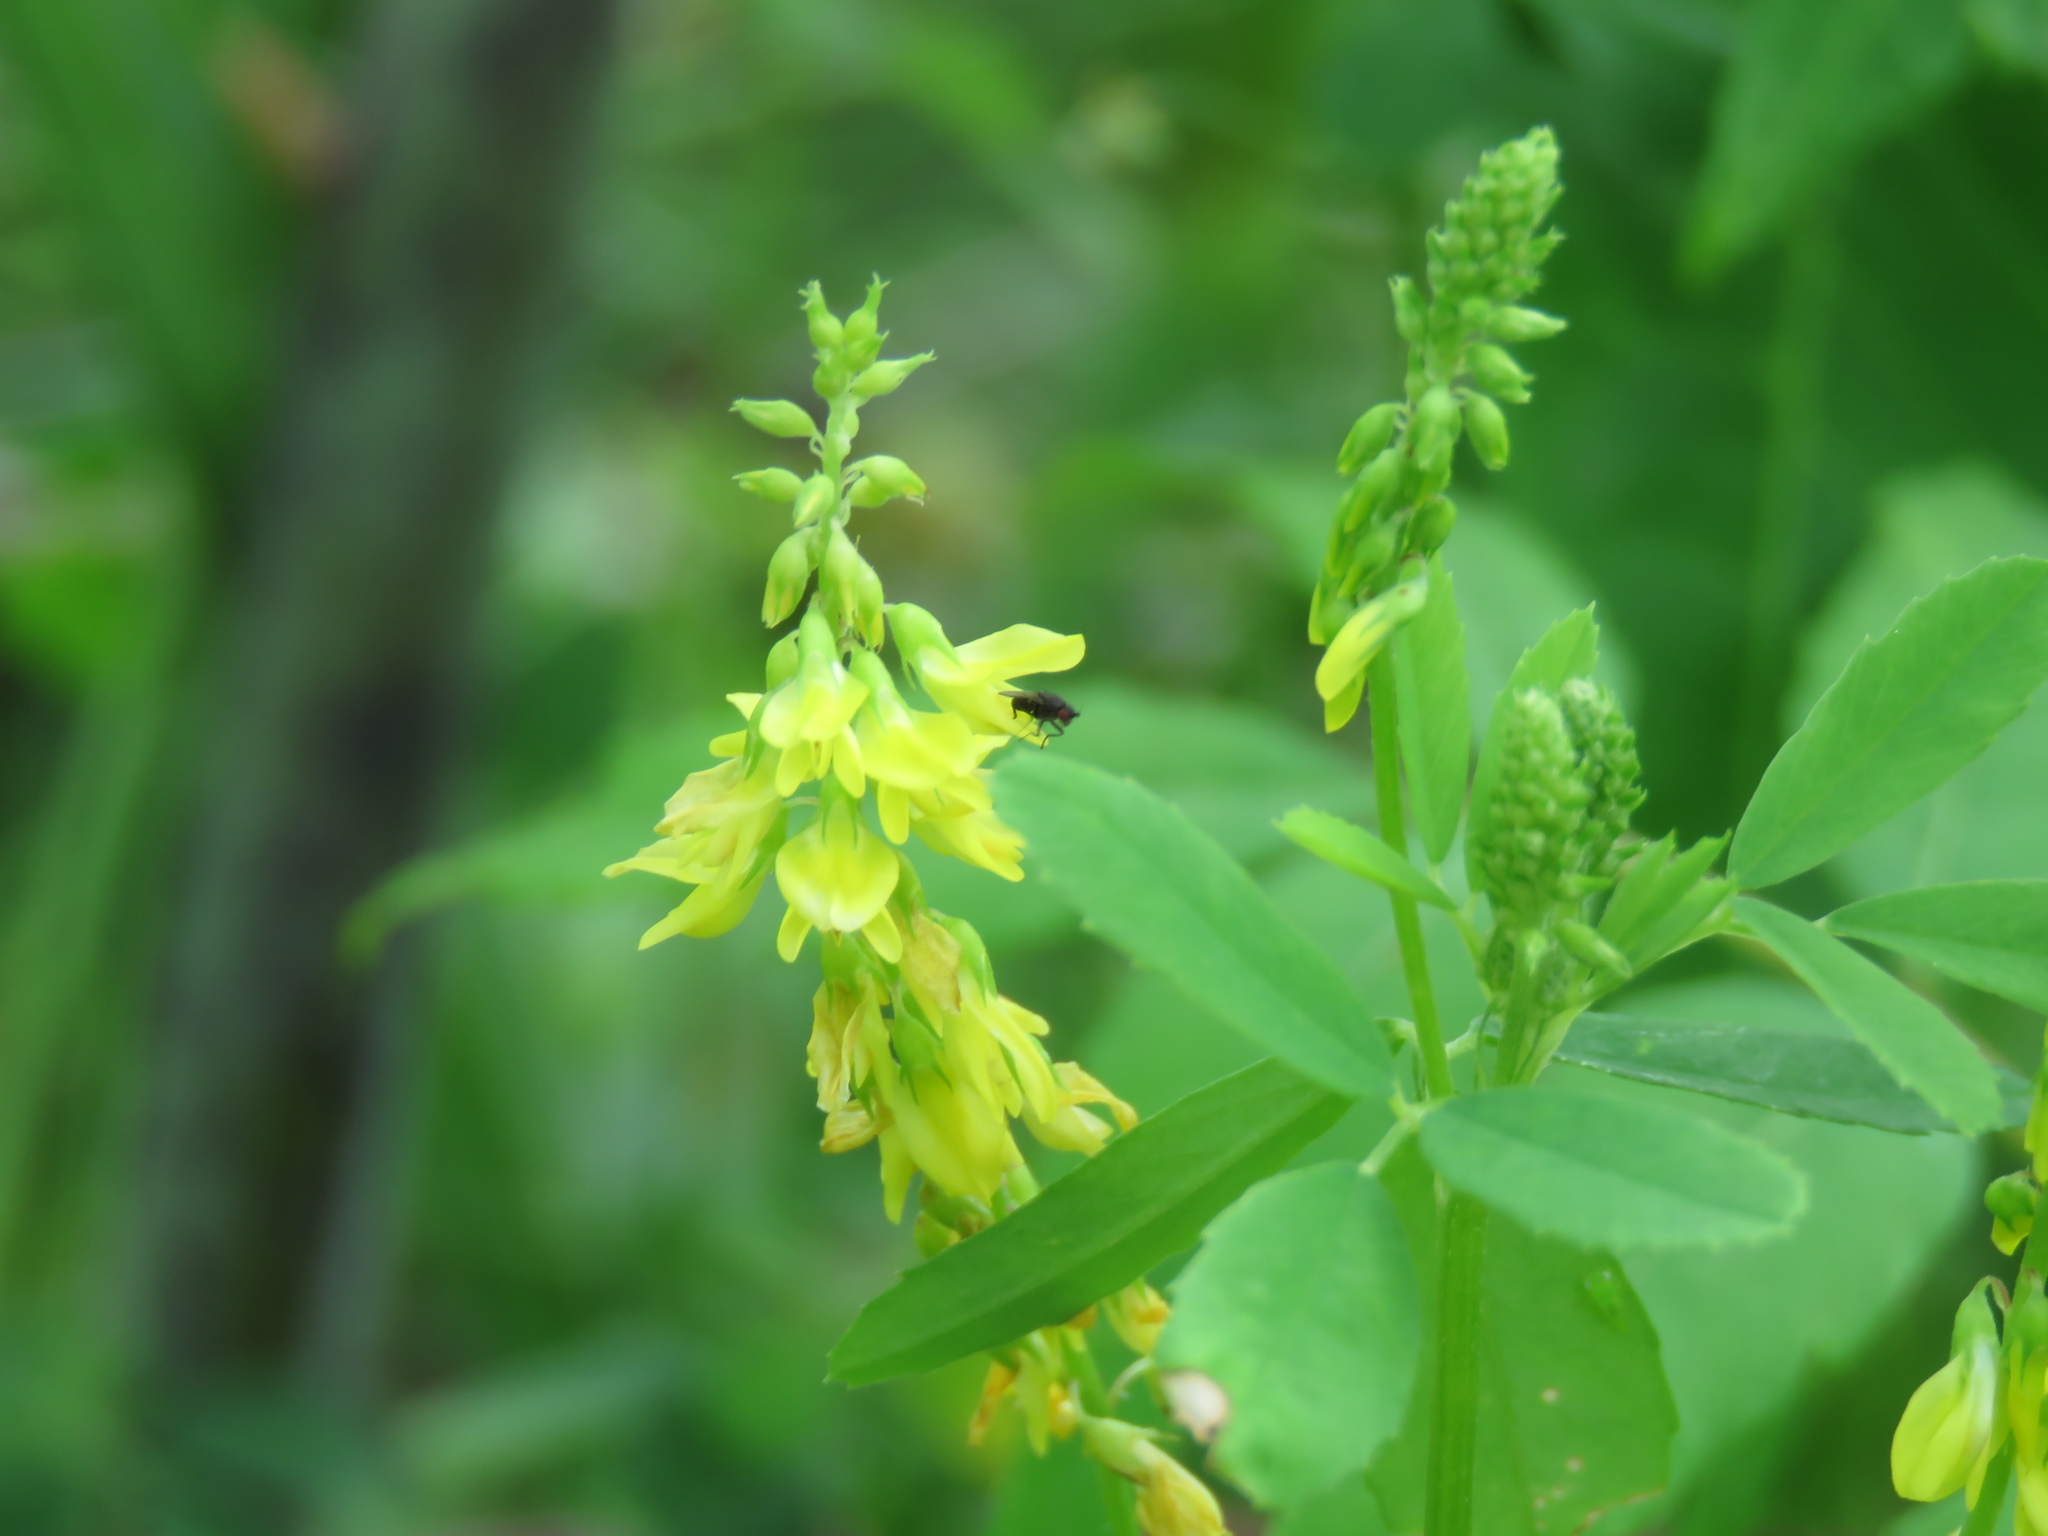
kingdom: Plantae
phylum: Tracheophyta
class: Magnoliopsida
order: Fabales
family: Fabaceae
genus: Melilotus
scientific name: Melilotus officinalis
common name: Sweetclover
